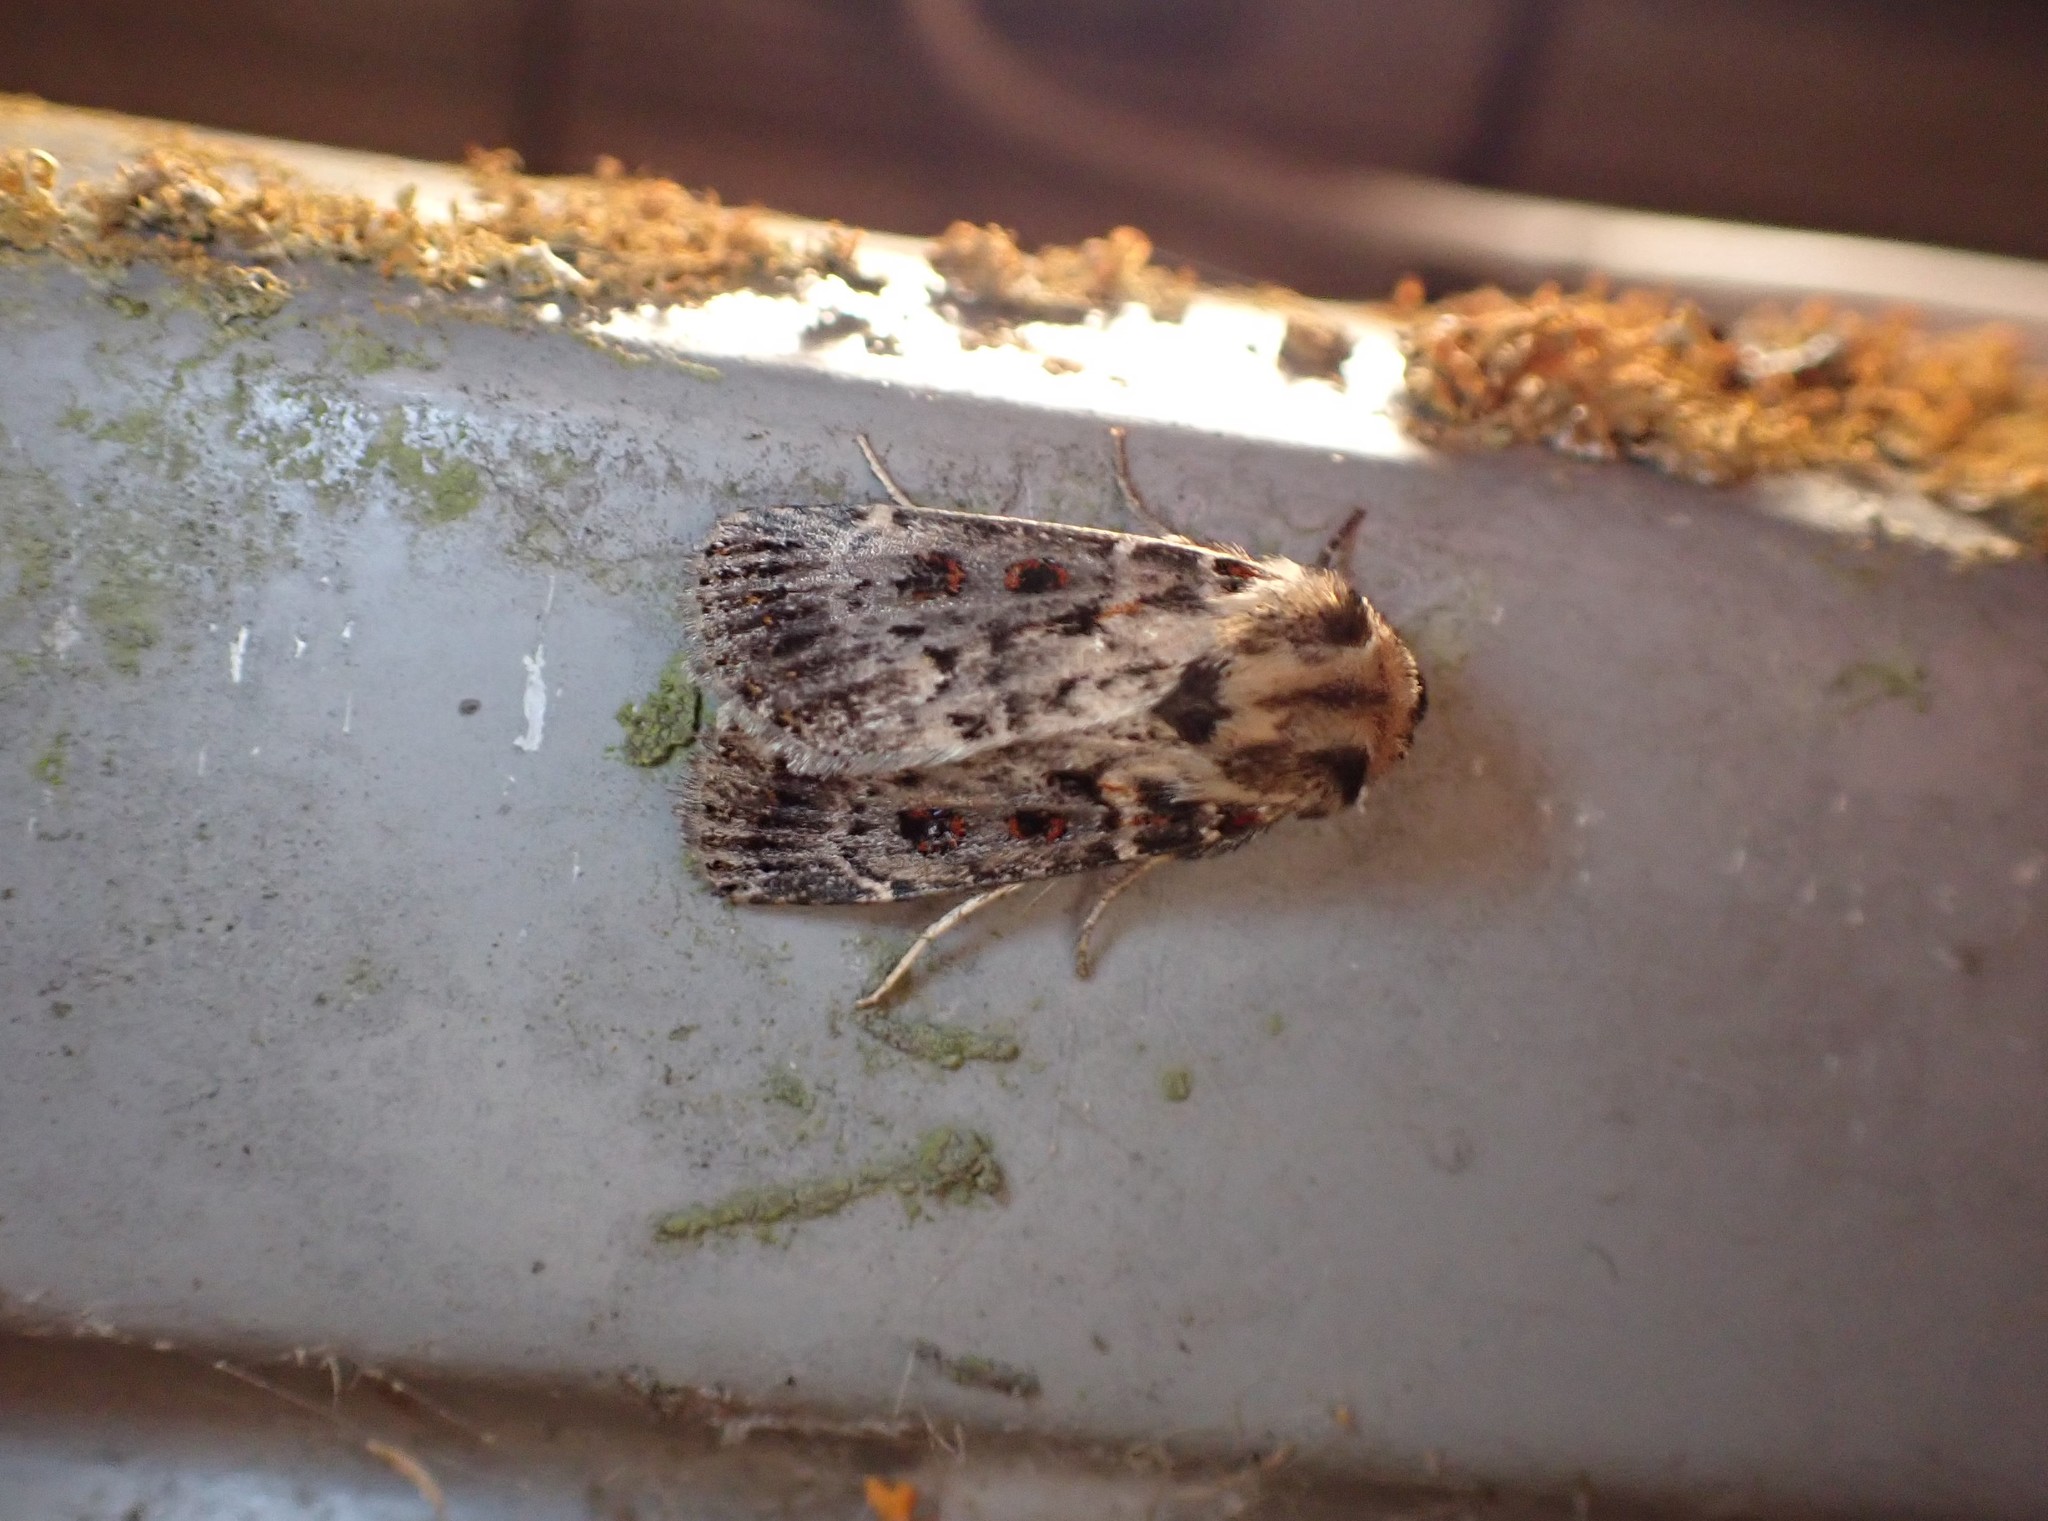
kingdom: Animalia
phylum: Arthropoda
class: Insecta
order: Lepidoptera
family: Noctuidae
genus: Proteuxoa
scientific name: Proteuxoa sanguinipuncta
